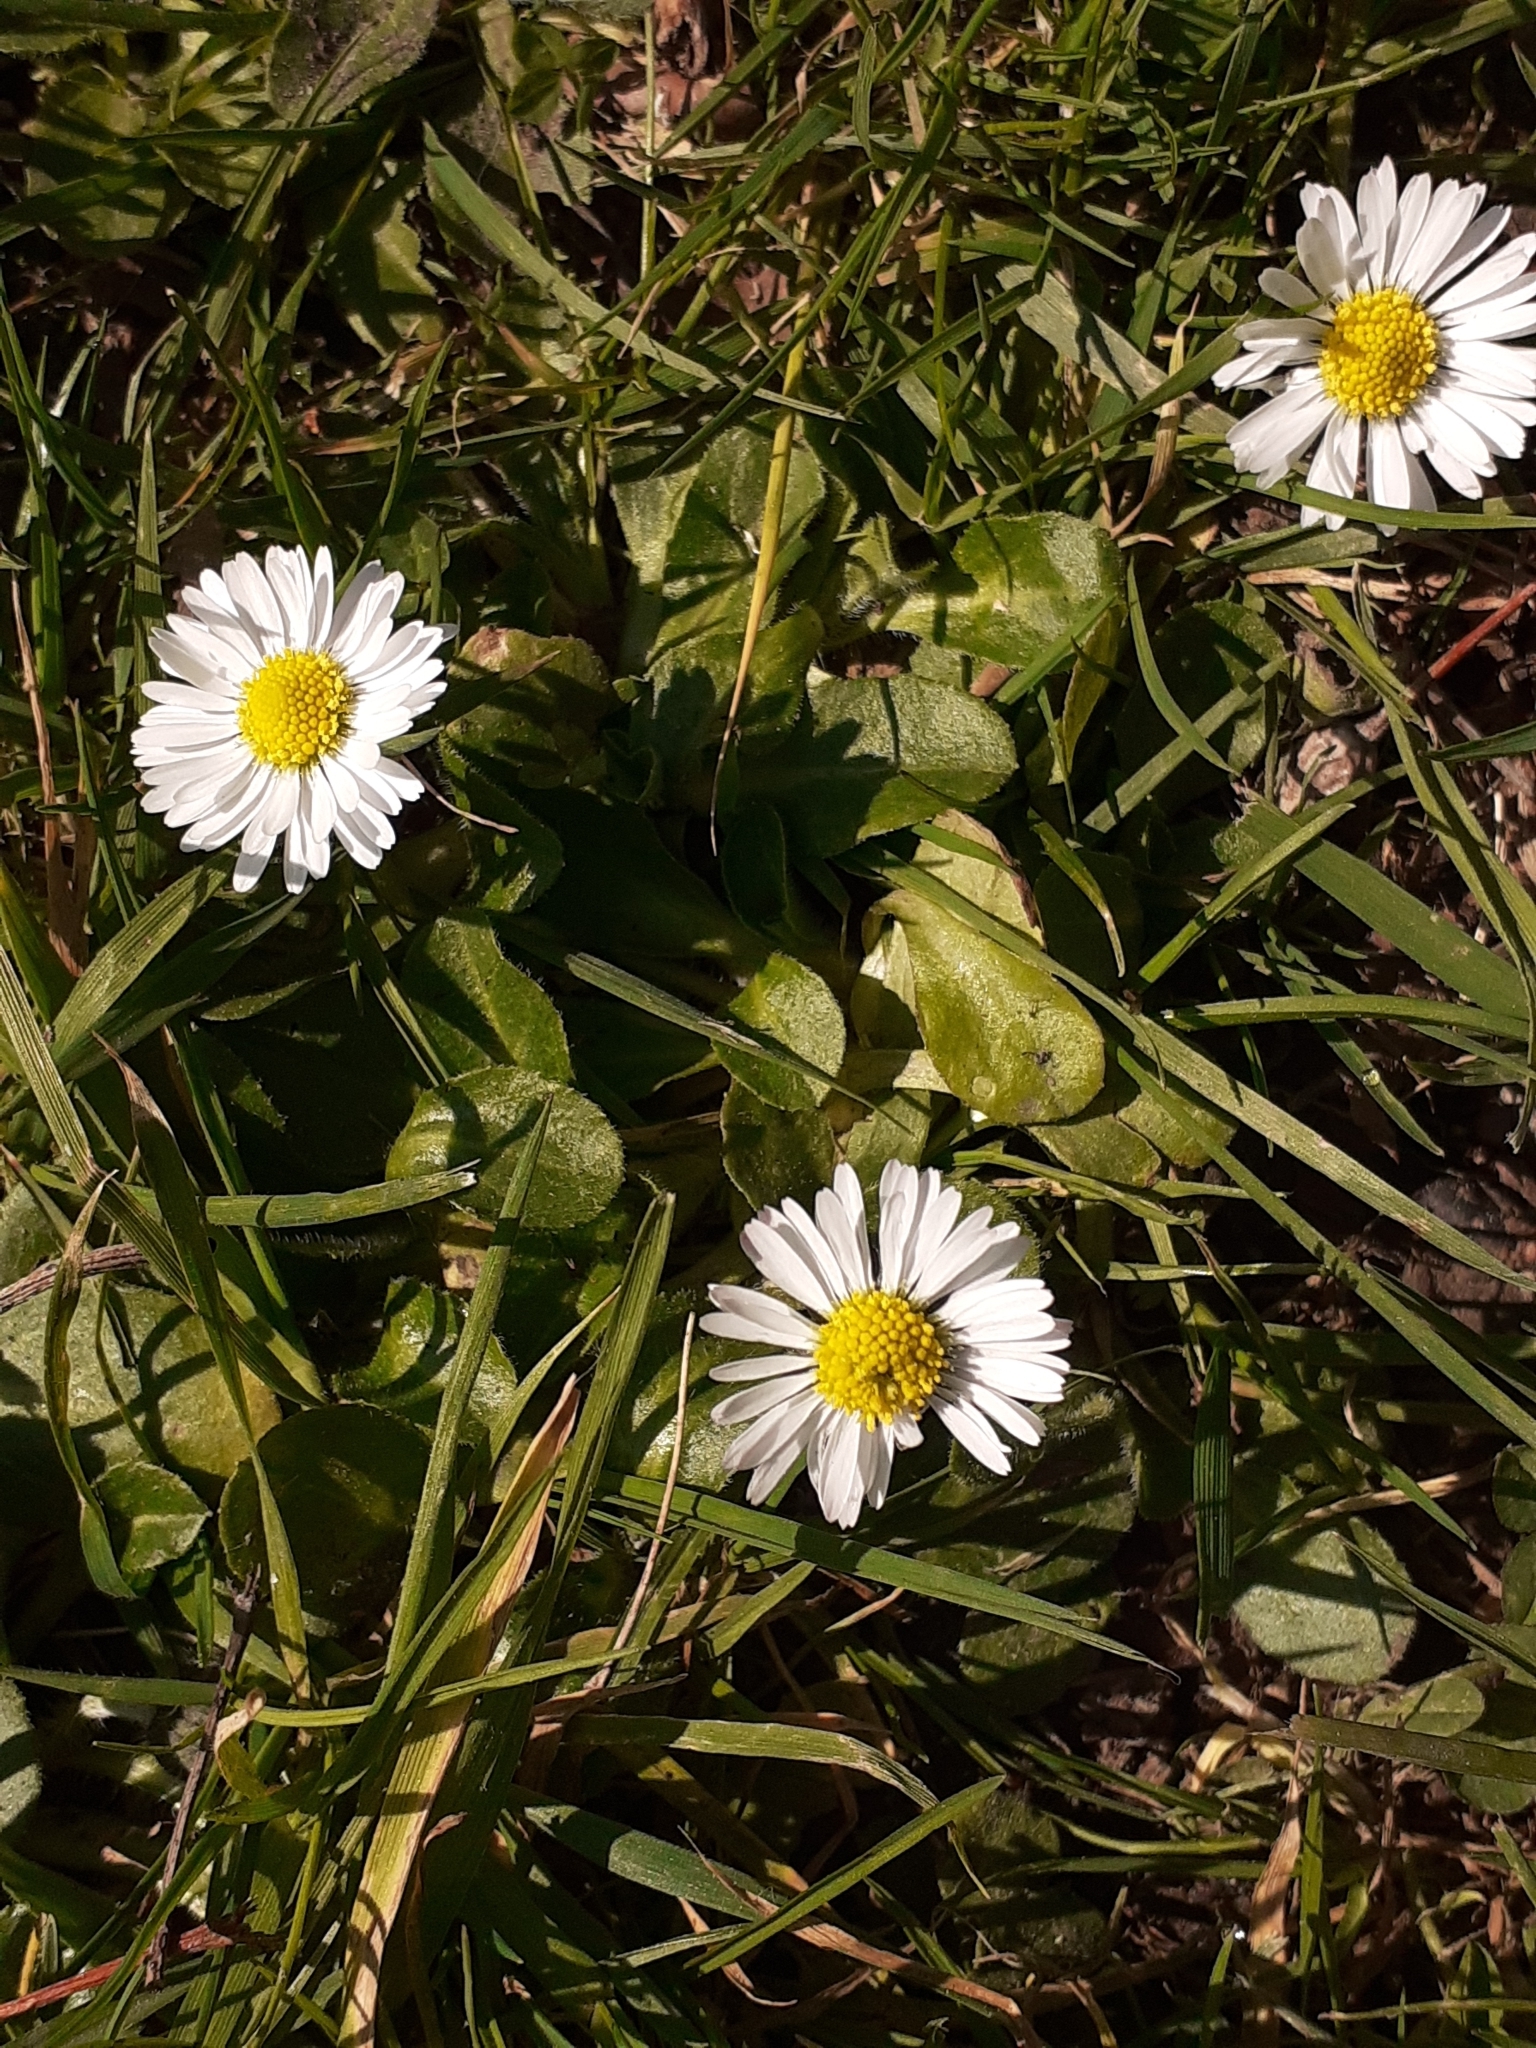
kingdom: Plantae
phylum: Tracheophyta
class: Magnoliopsida
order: Asterales
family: Asteraceae
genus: Bellis
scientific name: Bellis perennis
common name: Lawndaisy
